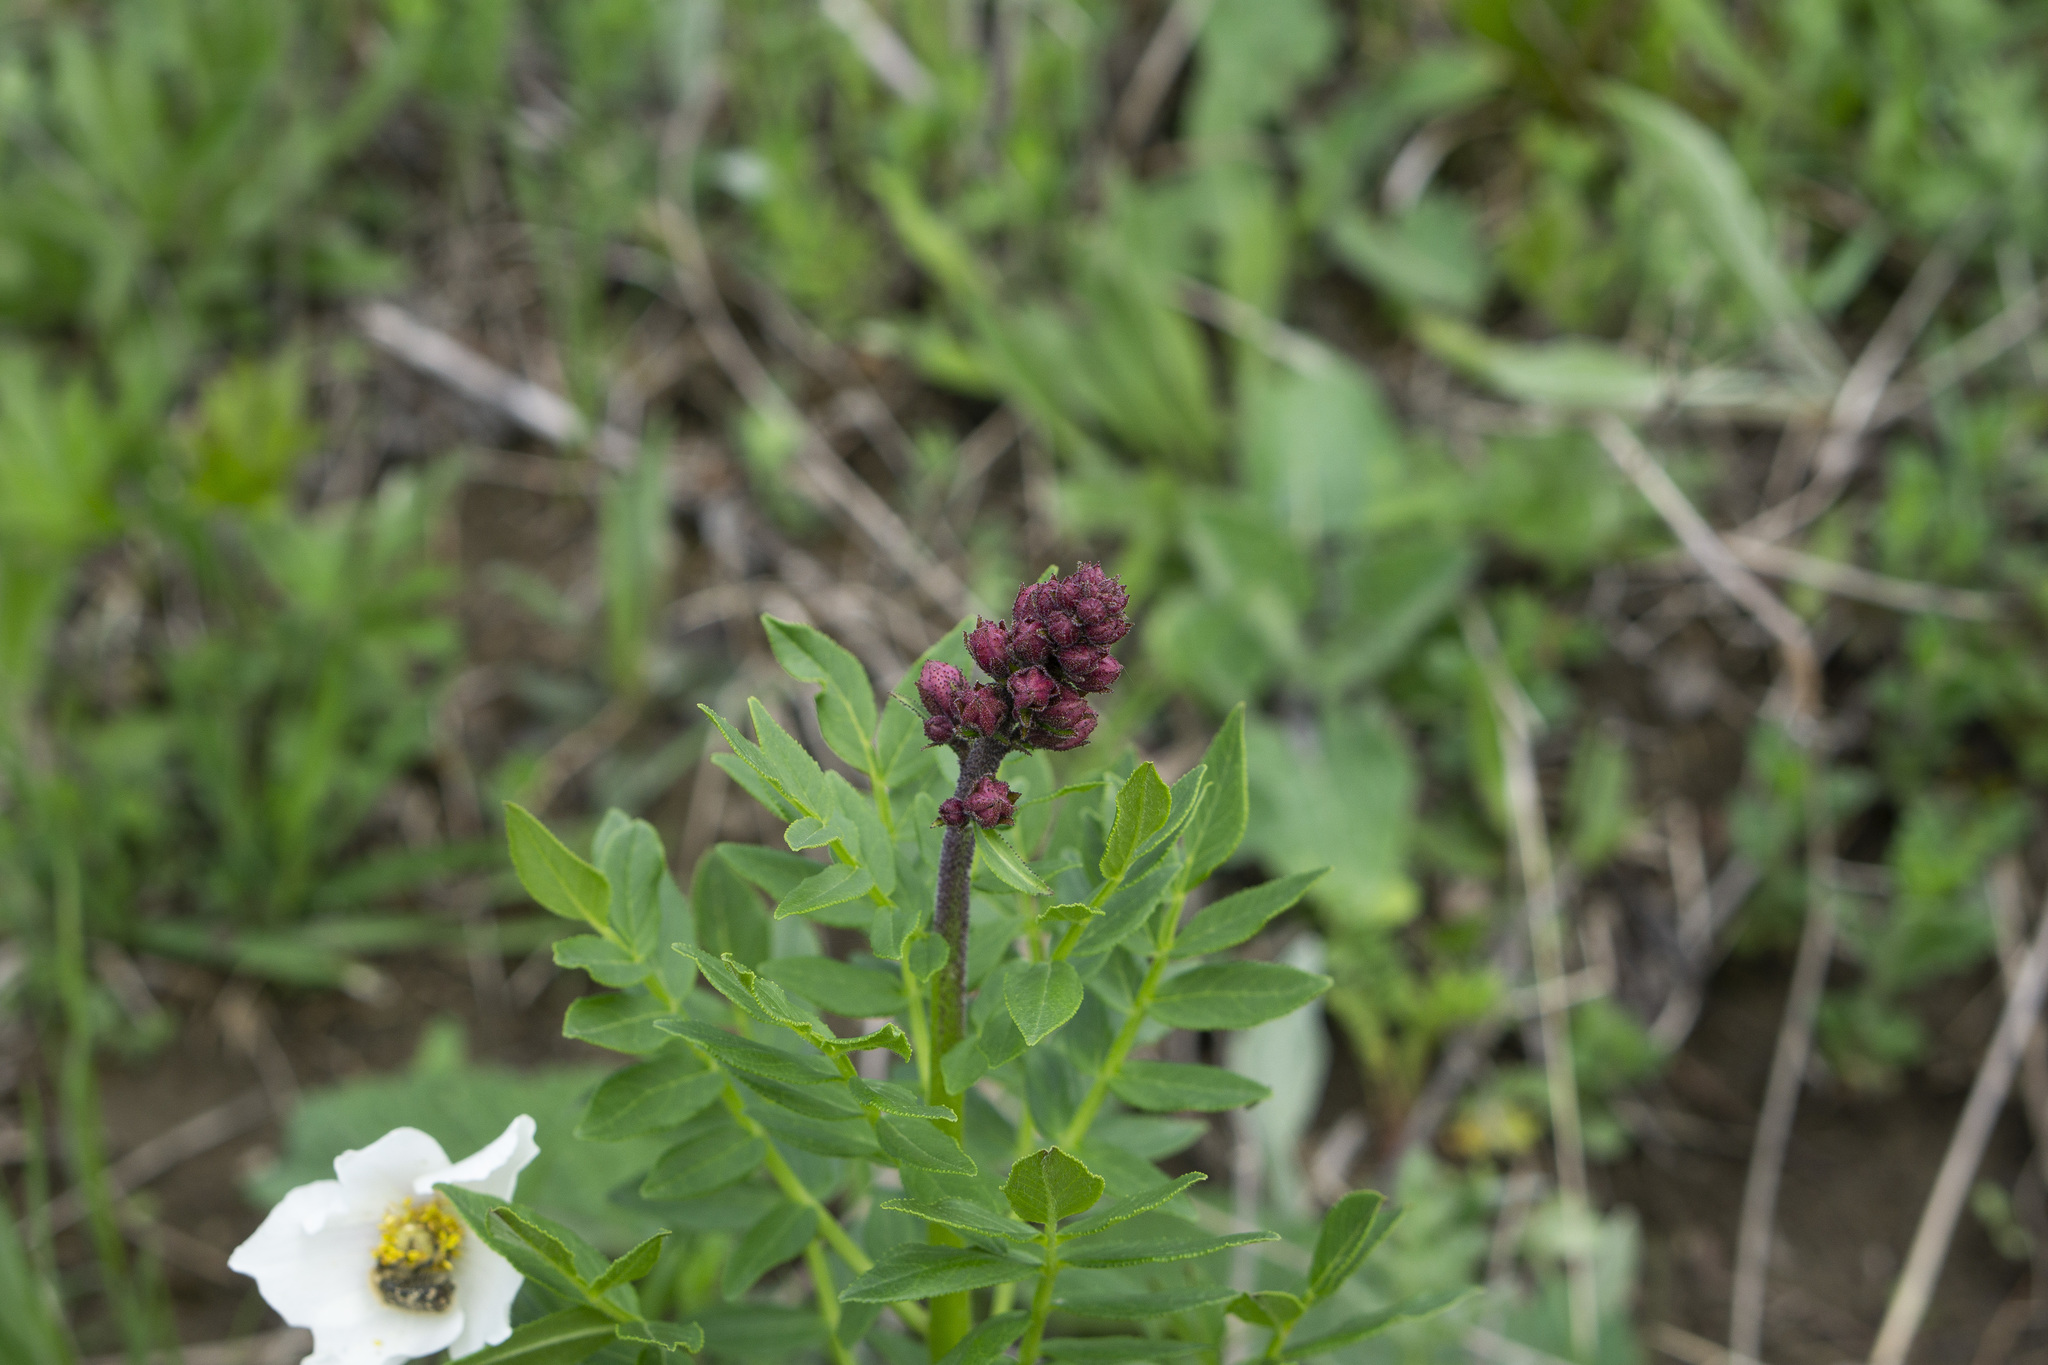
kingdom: Plantae
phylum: Tracheophyta
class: Magnoliopsida
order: Sapindales
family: Rutaceae
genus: Dictamnus
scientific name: Dictamnus albus
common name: Gasplant
